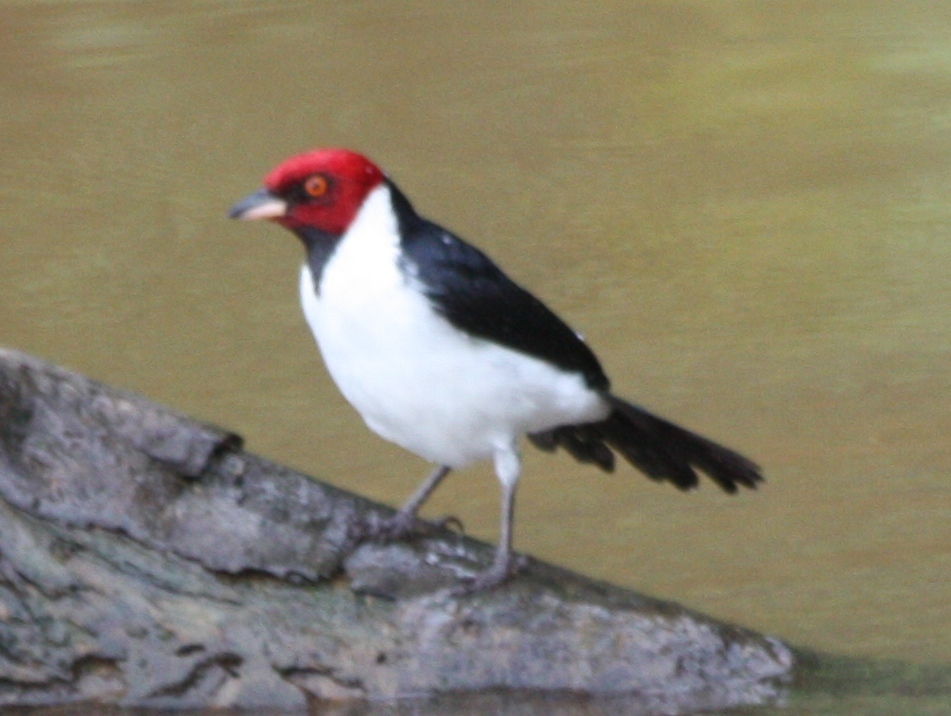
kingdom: Animalia
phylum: Chordata
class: Aves
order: Passeriformes
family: Thraupidae
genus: Paroaria
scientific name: Paroaria gularis
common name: Red-capped cardinal
